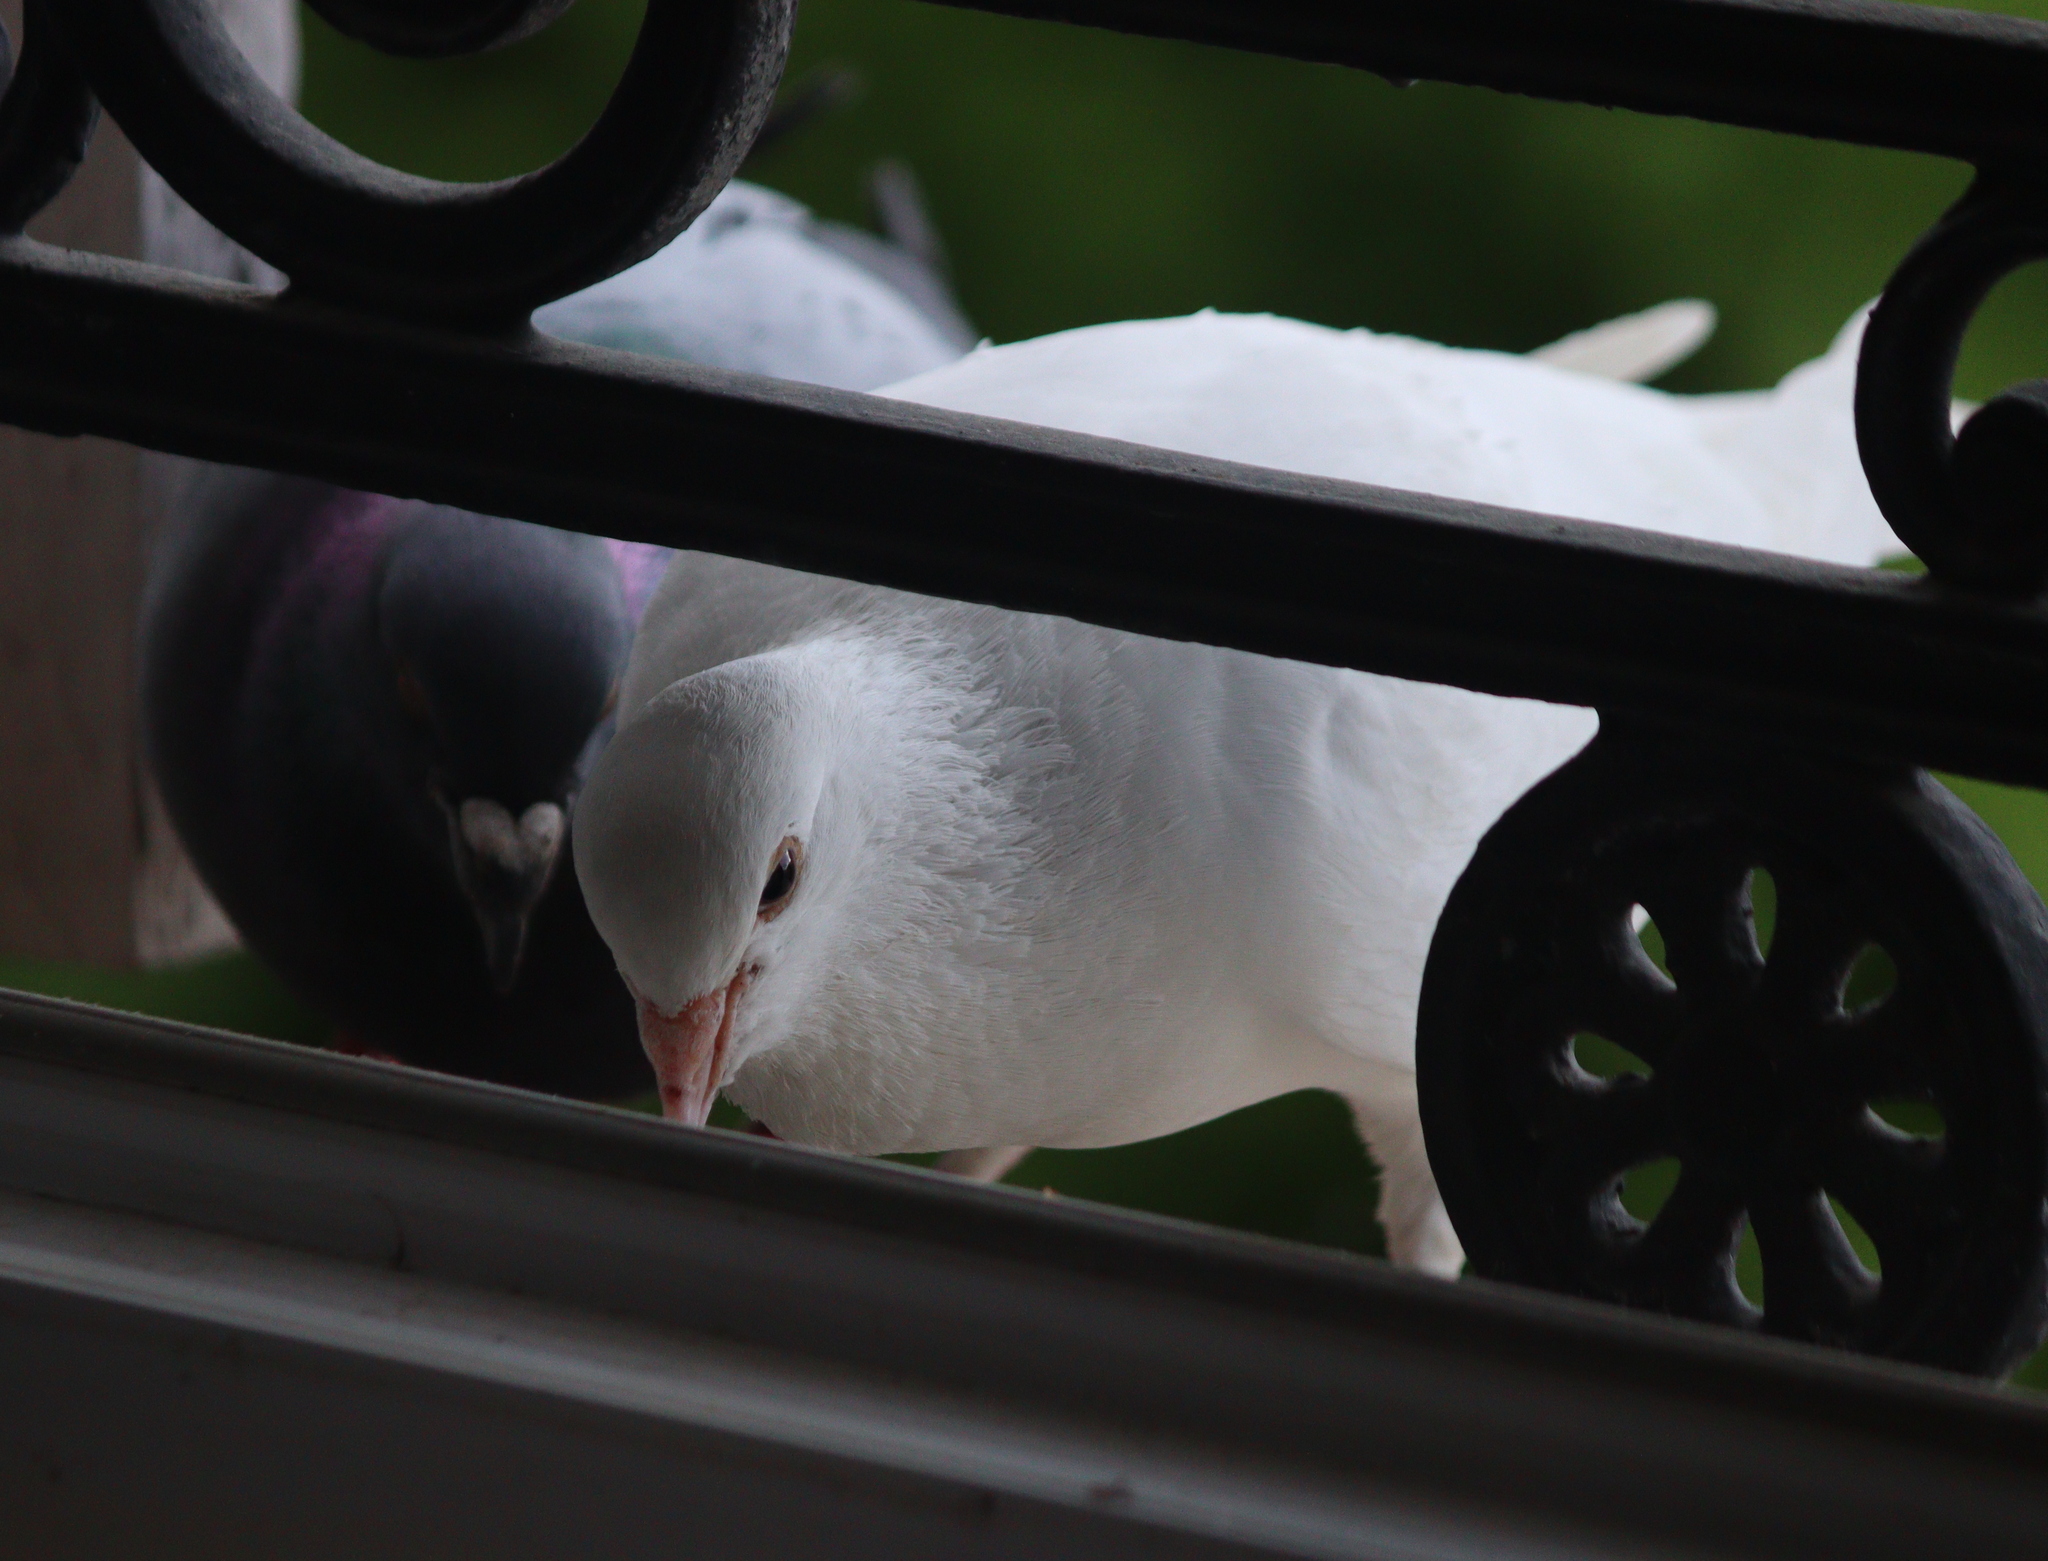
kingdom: Animalia
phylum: Chordata
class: Aves
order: Columbiformes
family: Columbidae
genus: Columba
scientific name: Columba livia
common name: Rock pigeon
